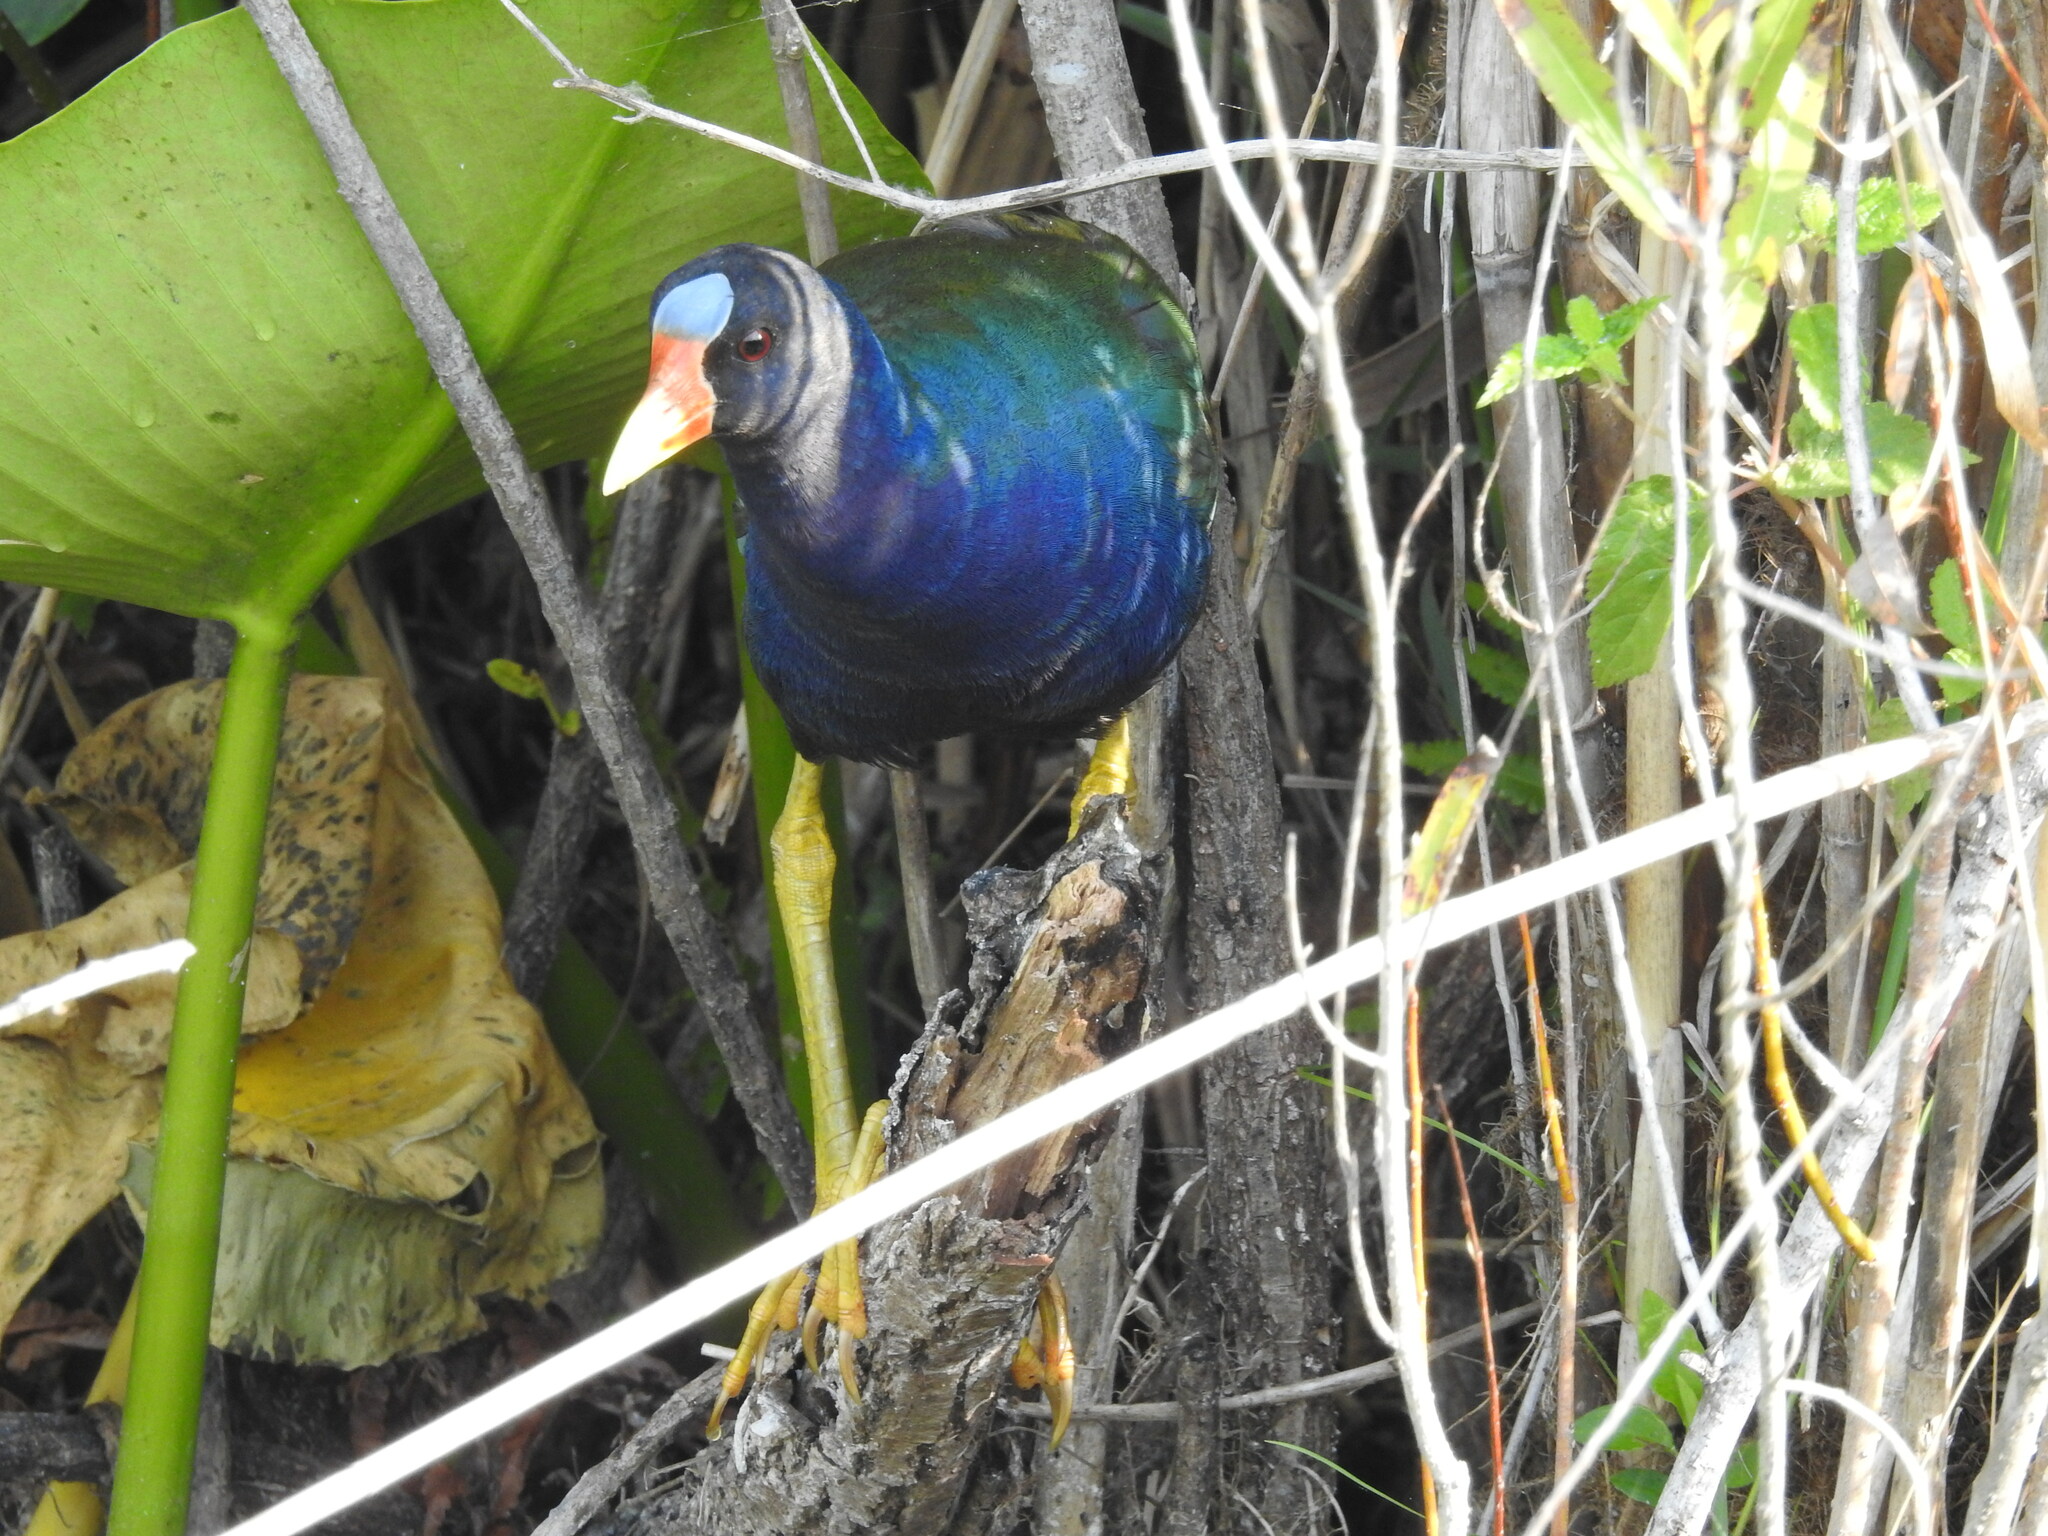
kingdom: Animalia
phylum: Chordata
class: Aves
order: Gruiformes
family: Rallidae
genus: Porphyrio
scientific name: Porphyrio martinica
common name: Purple gallinule
